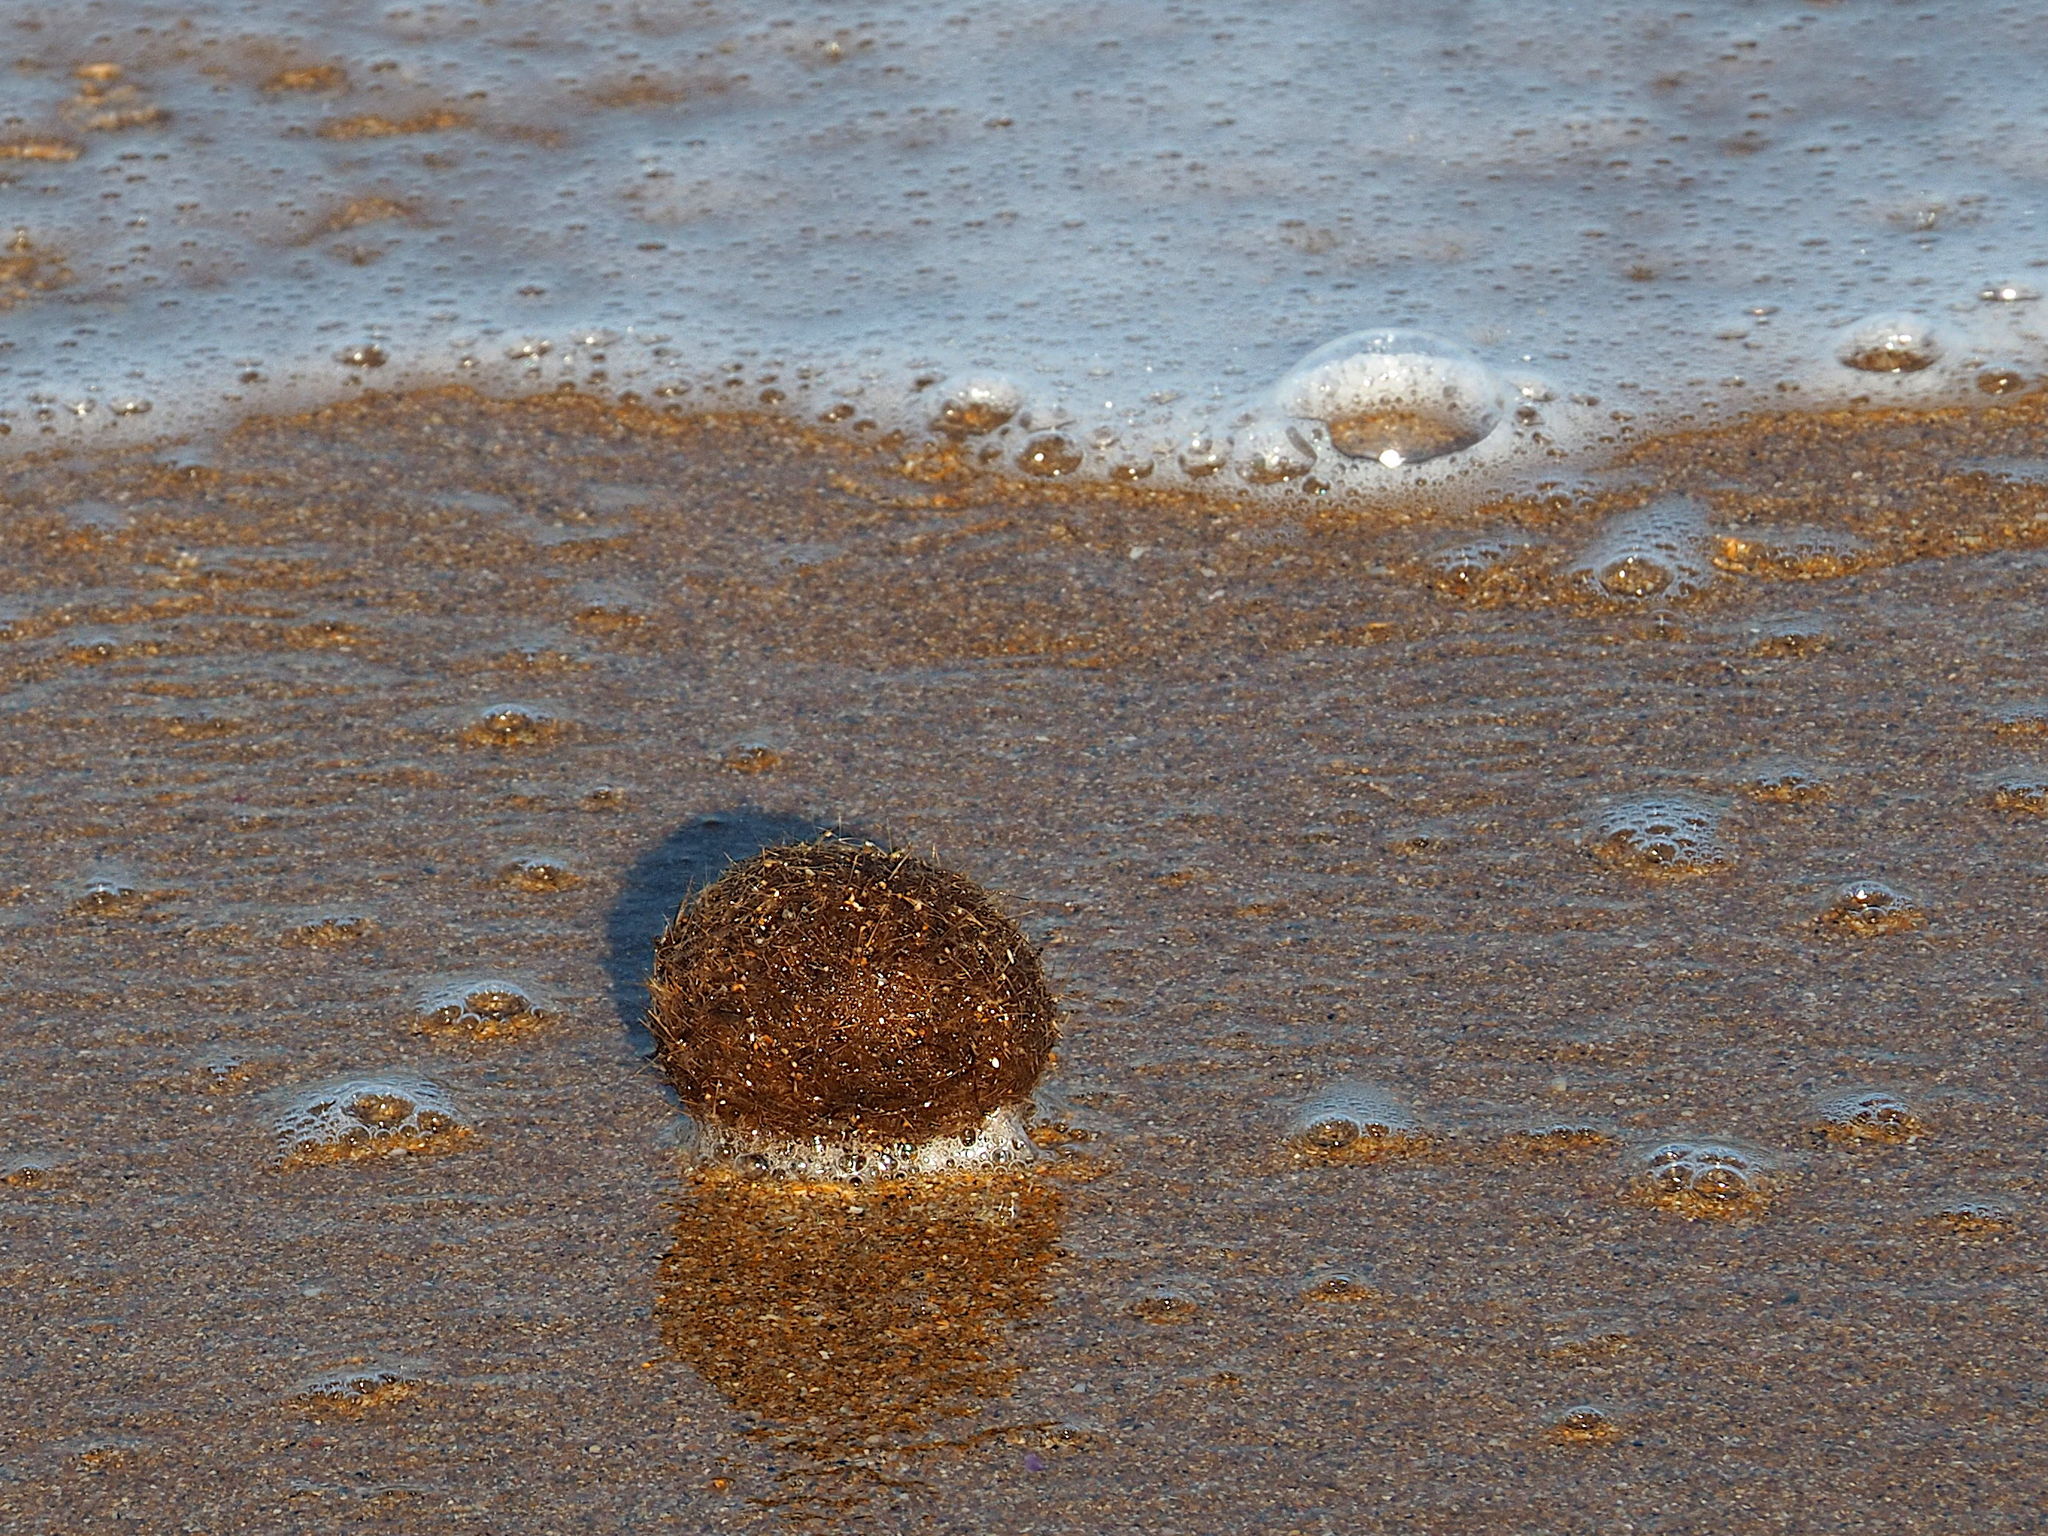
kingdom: Plantae
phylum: Tracheophyta
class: Liliopsida
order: Alismatales
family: Posidoniaceae
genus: Posidonia
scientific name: Posidonia oceanica
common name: Mediterranean tapeweed
